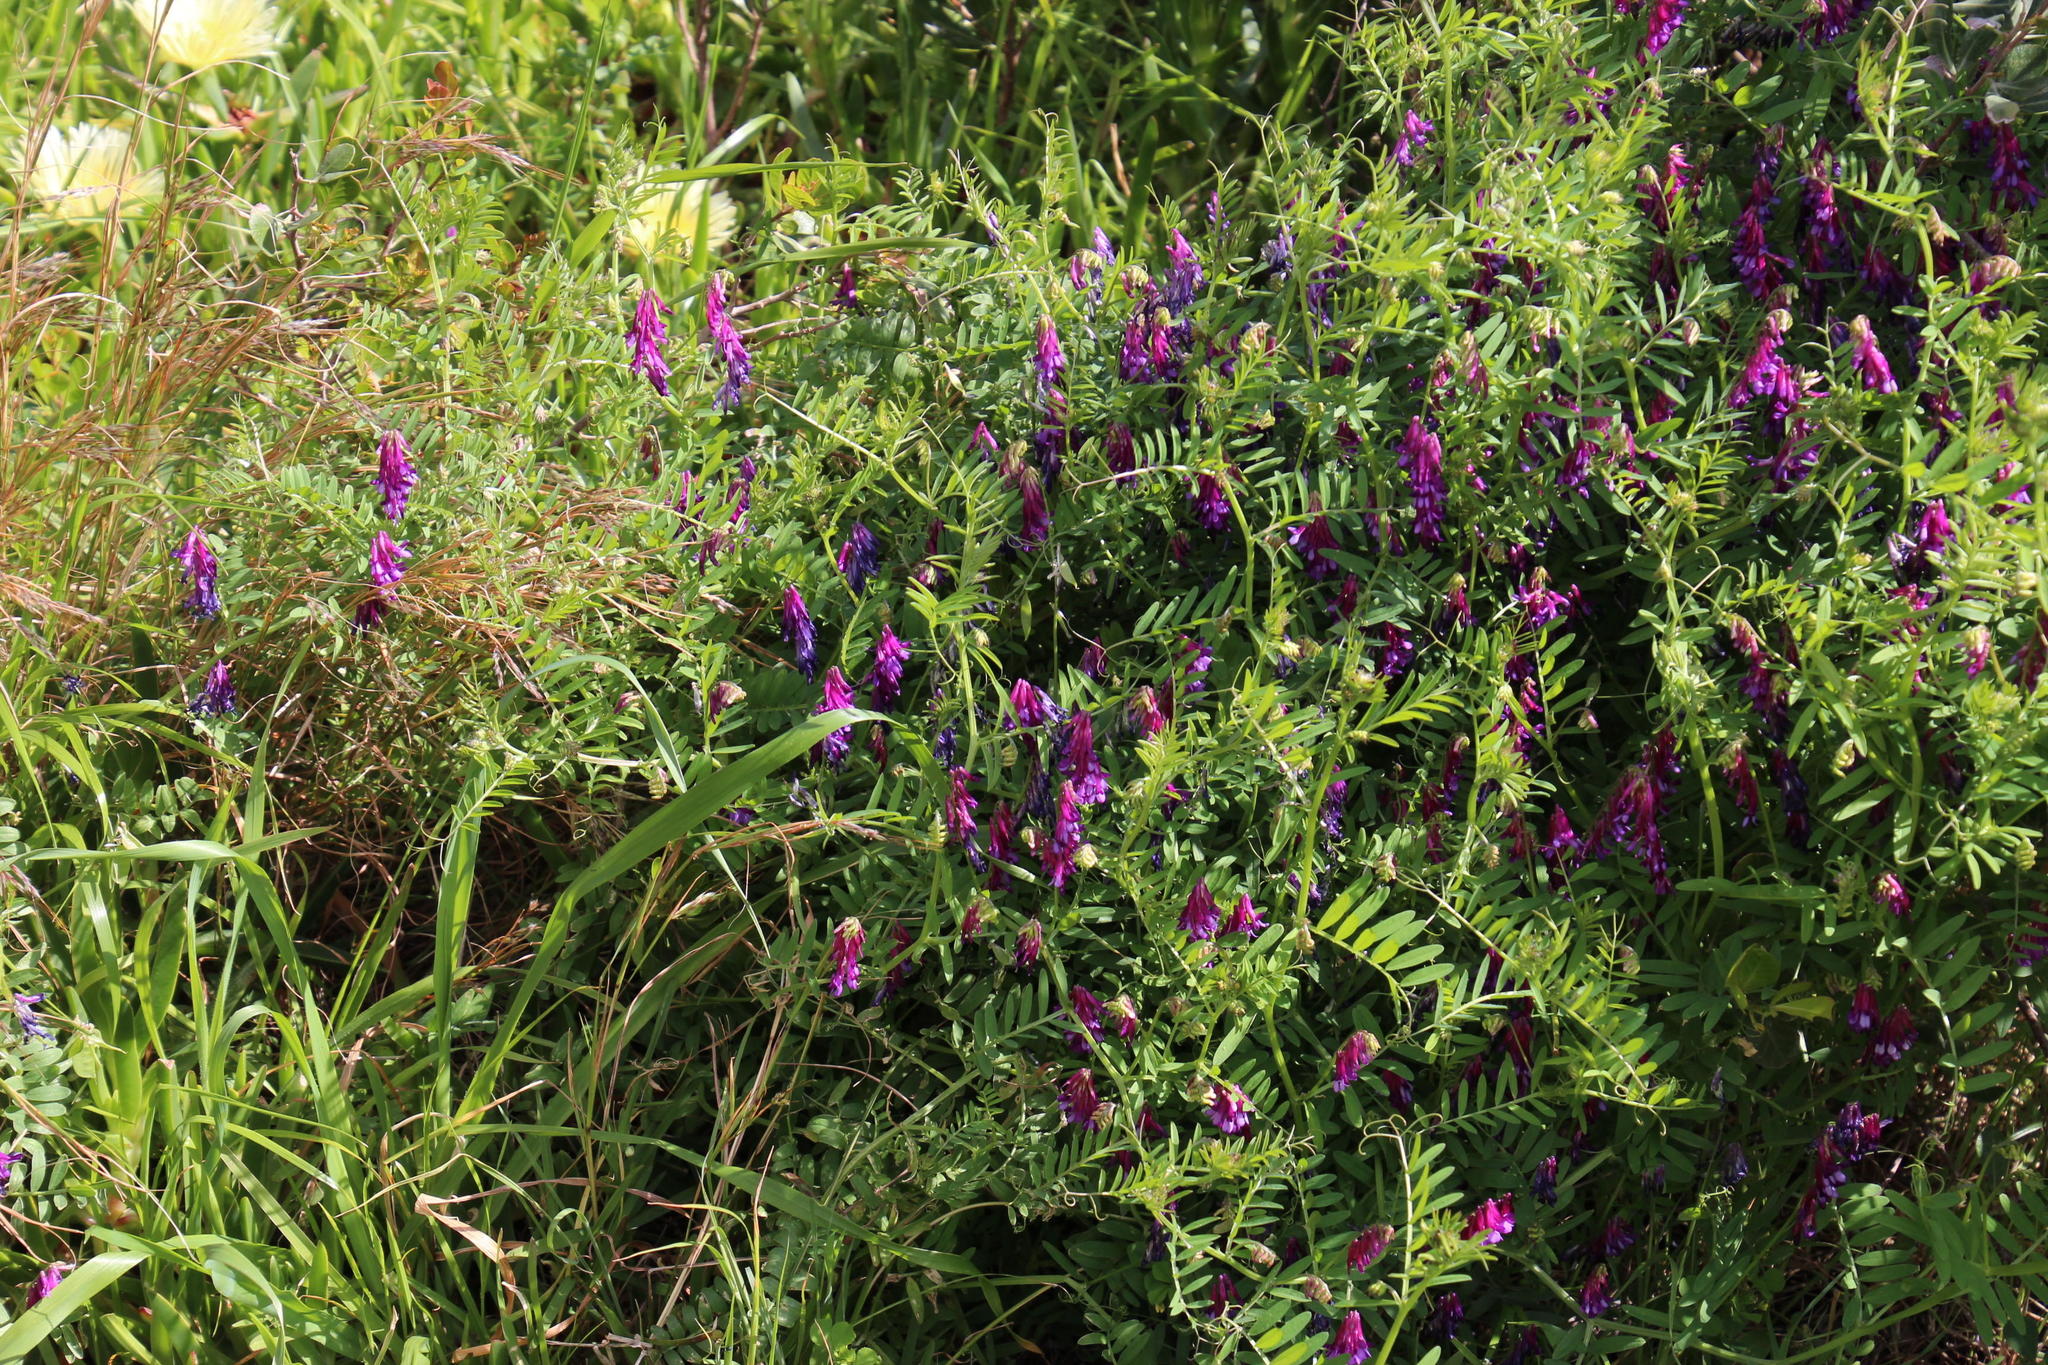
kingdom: Plantae
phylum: Tracheophyta
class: Magnoliopsida
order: Fabales
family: Fabaceae
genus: Vicia
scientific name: Vicia eriocarpa
